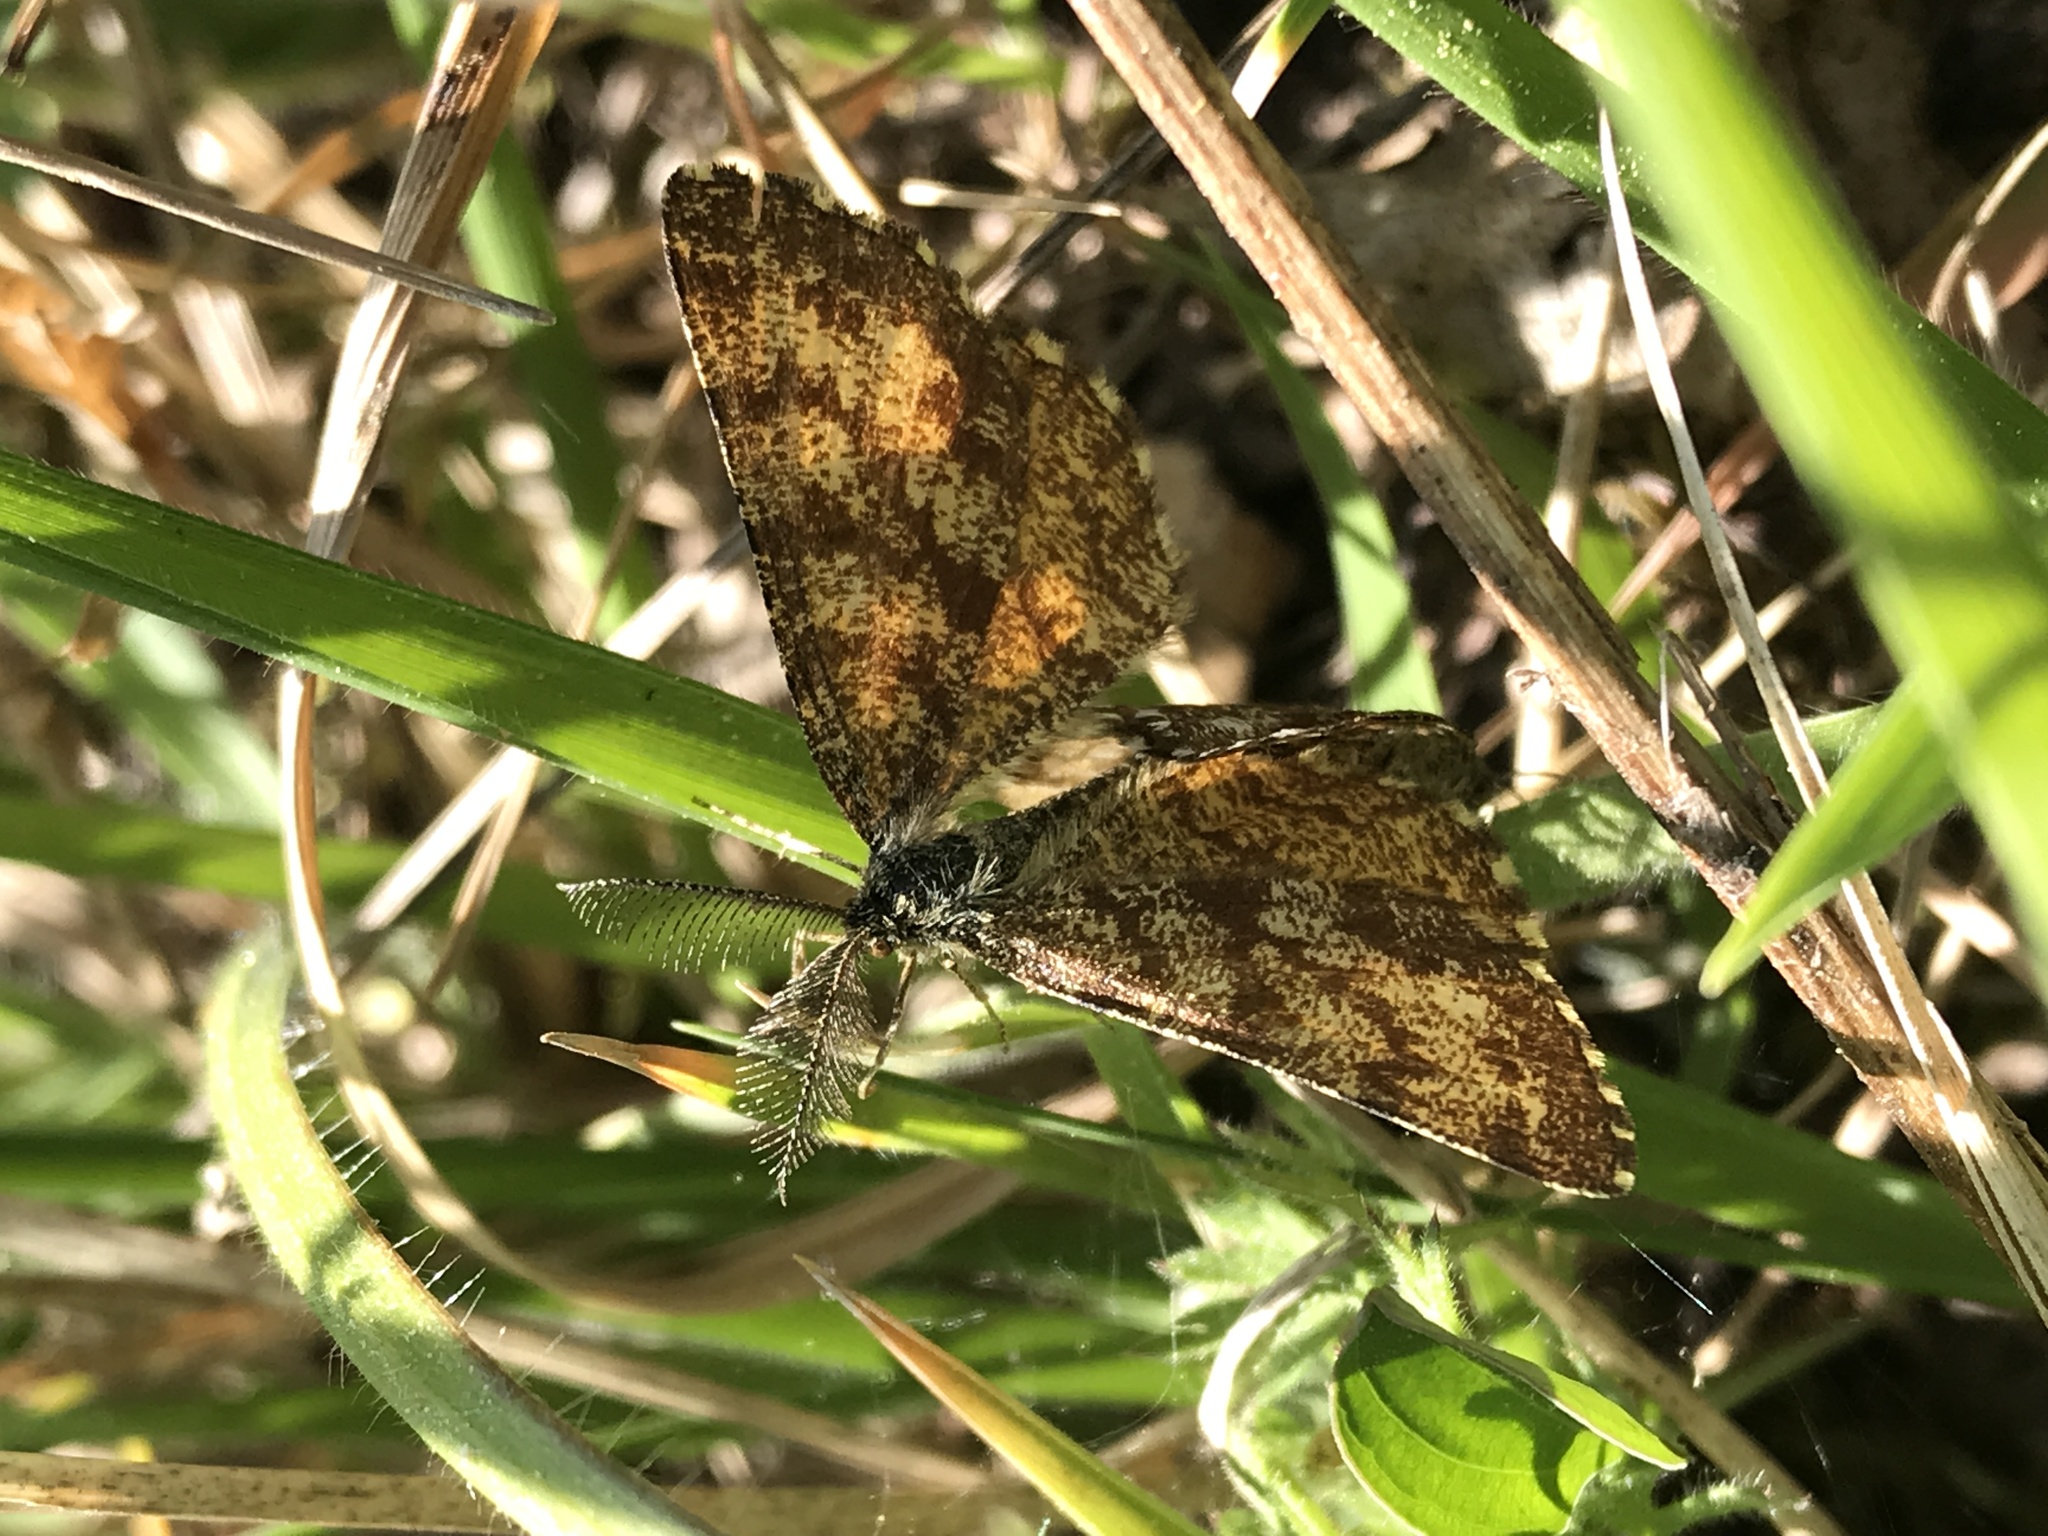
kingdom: Animalia
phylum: Arthropoda
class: Insecta
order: Lepidoptera
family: Geometridae
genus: Ematurga
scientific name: Ematurga atomaria
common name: Common heath
